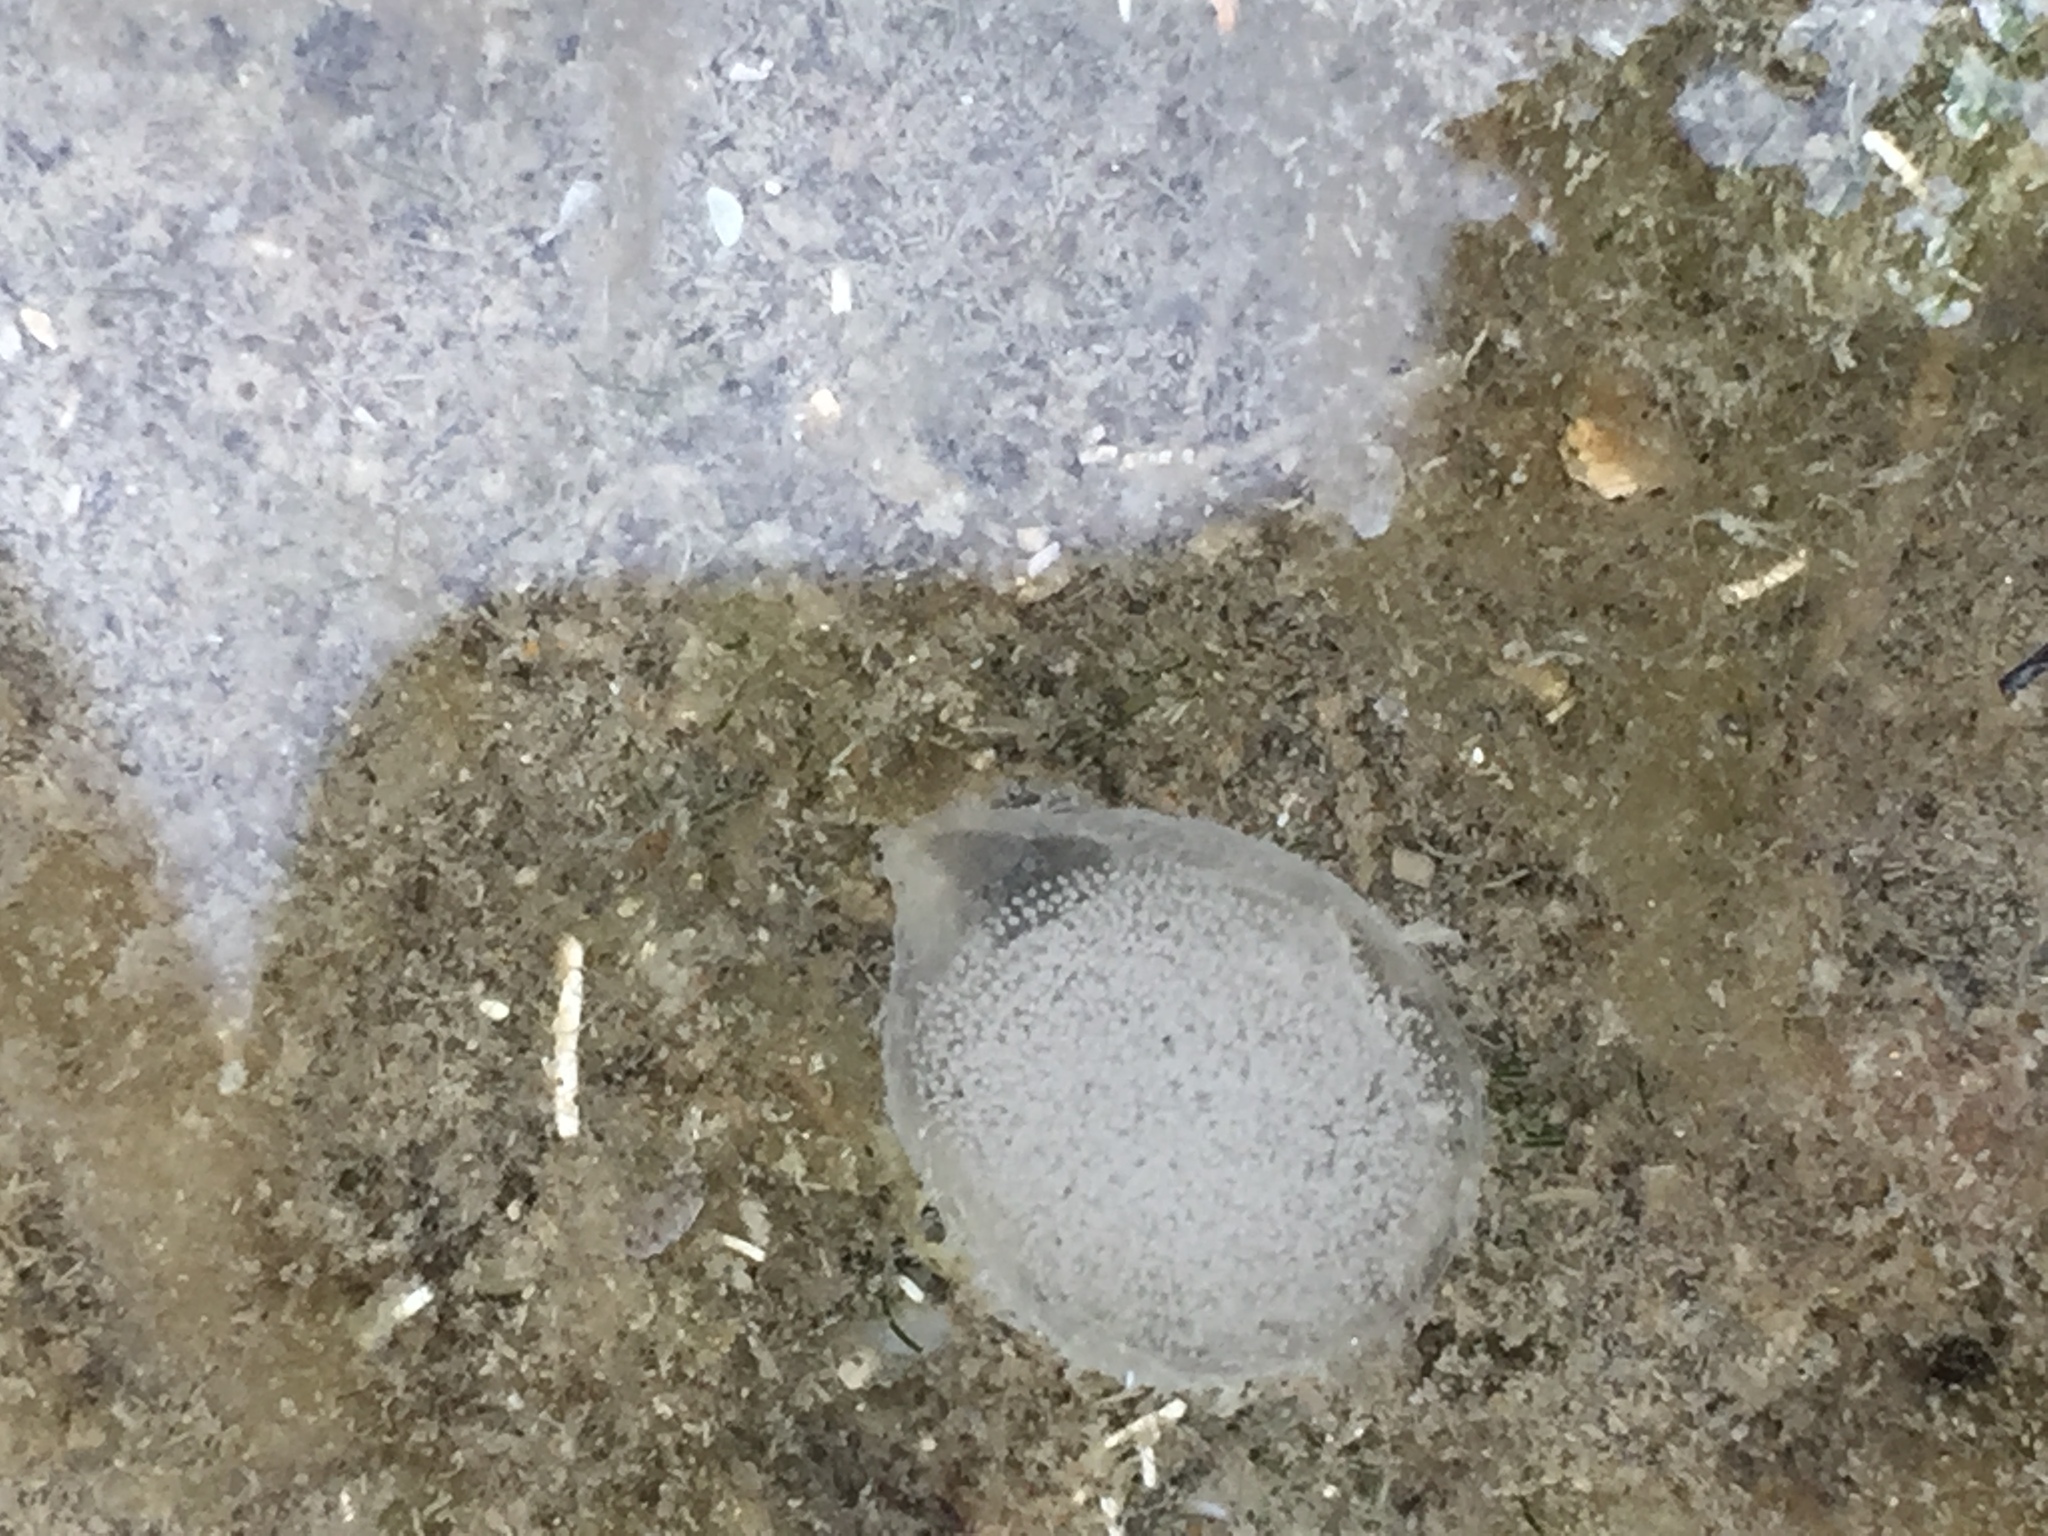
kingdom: Animalia
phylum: Mollusca
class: Gastropoda
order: Cephalaspidea
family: Aglajidae
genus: Melanochlamys
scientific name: Melanochlamys cylindrica
